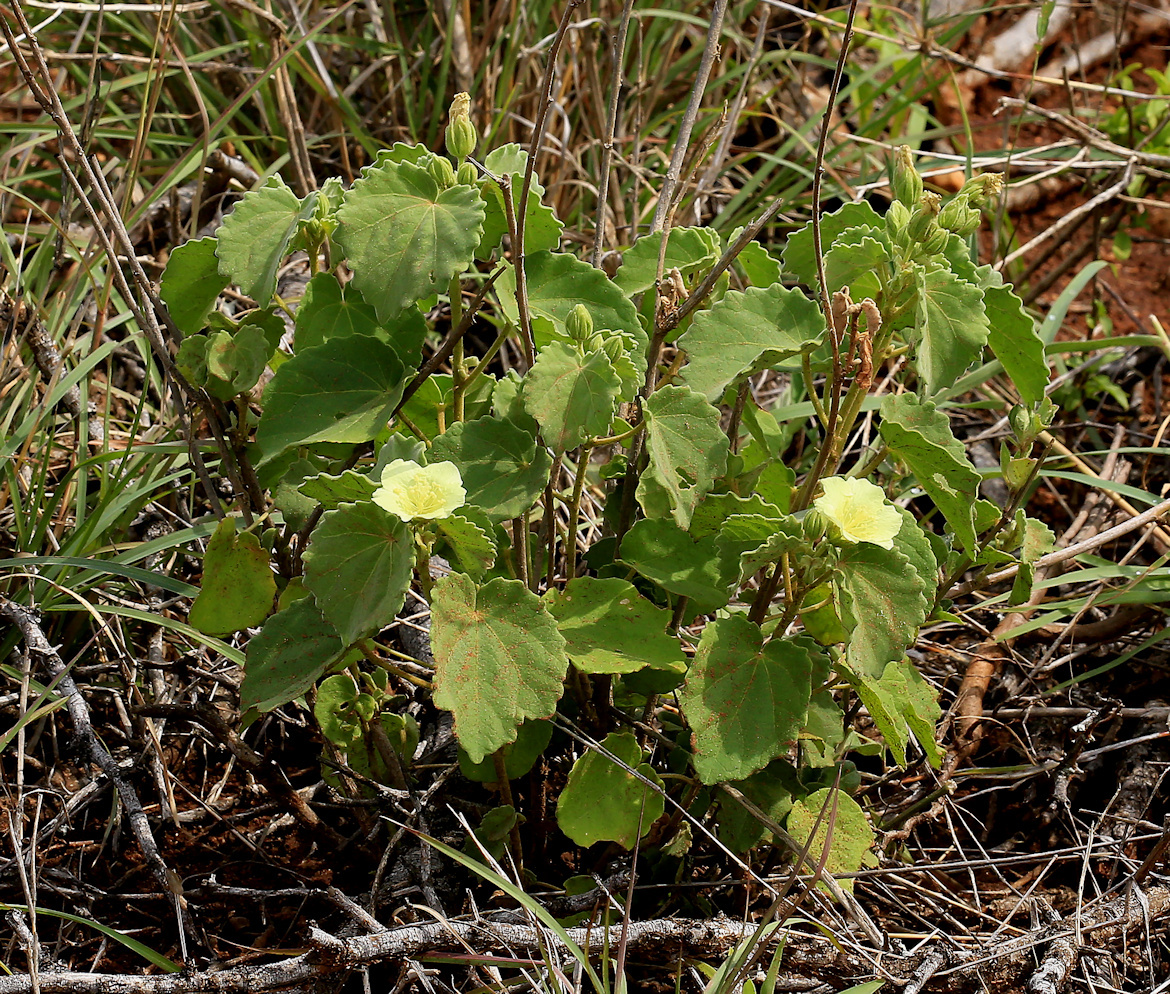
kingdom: Plantae
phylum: Tracheophyta
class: Magnoliopsida
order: Malvales
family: Malvaceae
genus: Pavonia
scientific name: Pavonia burchellii
